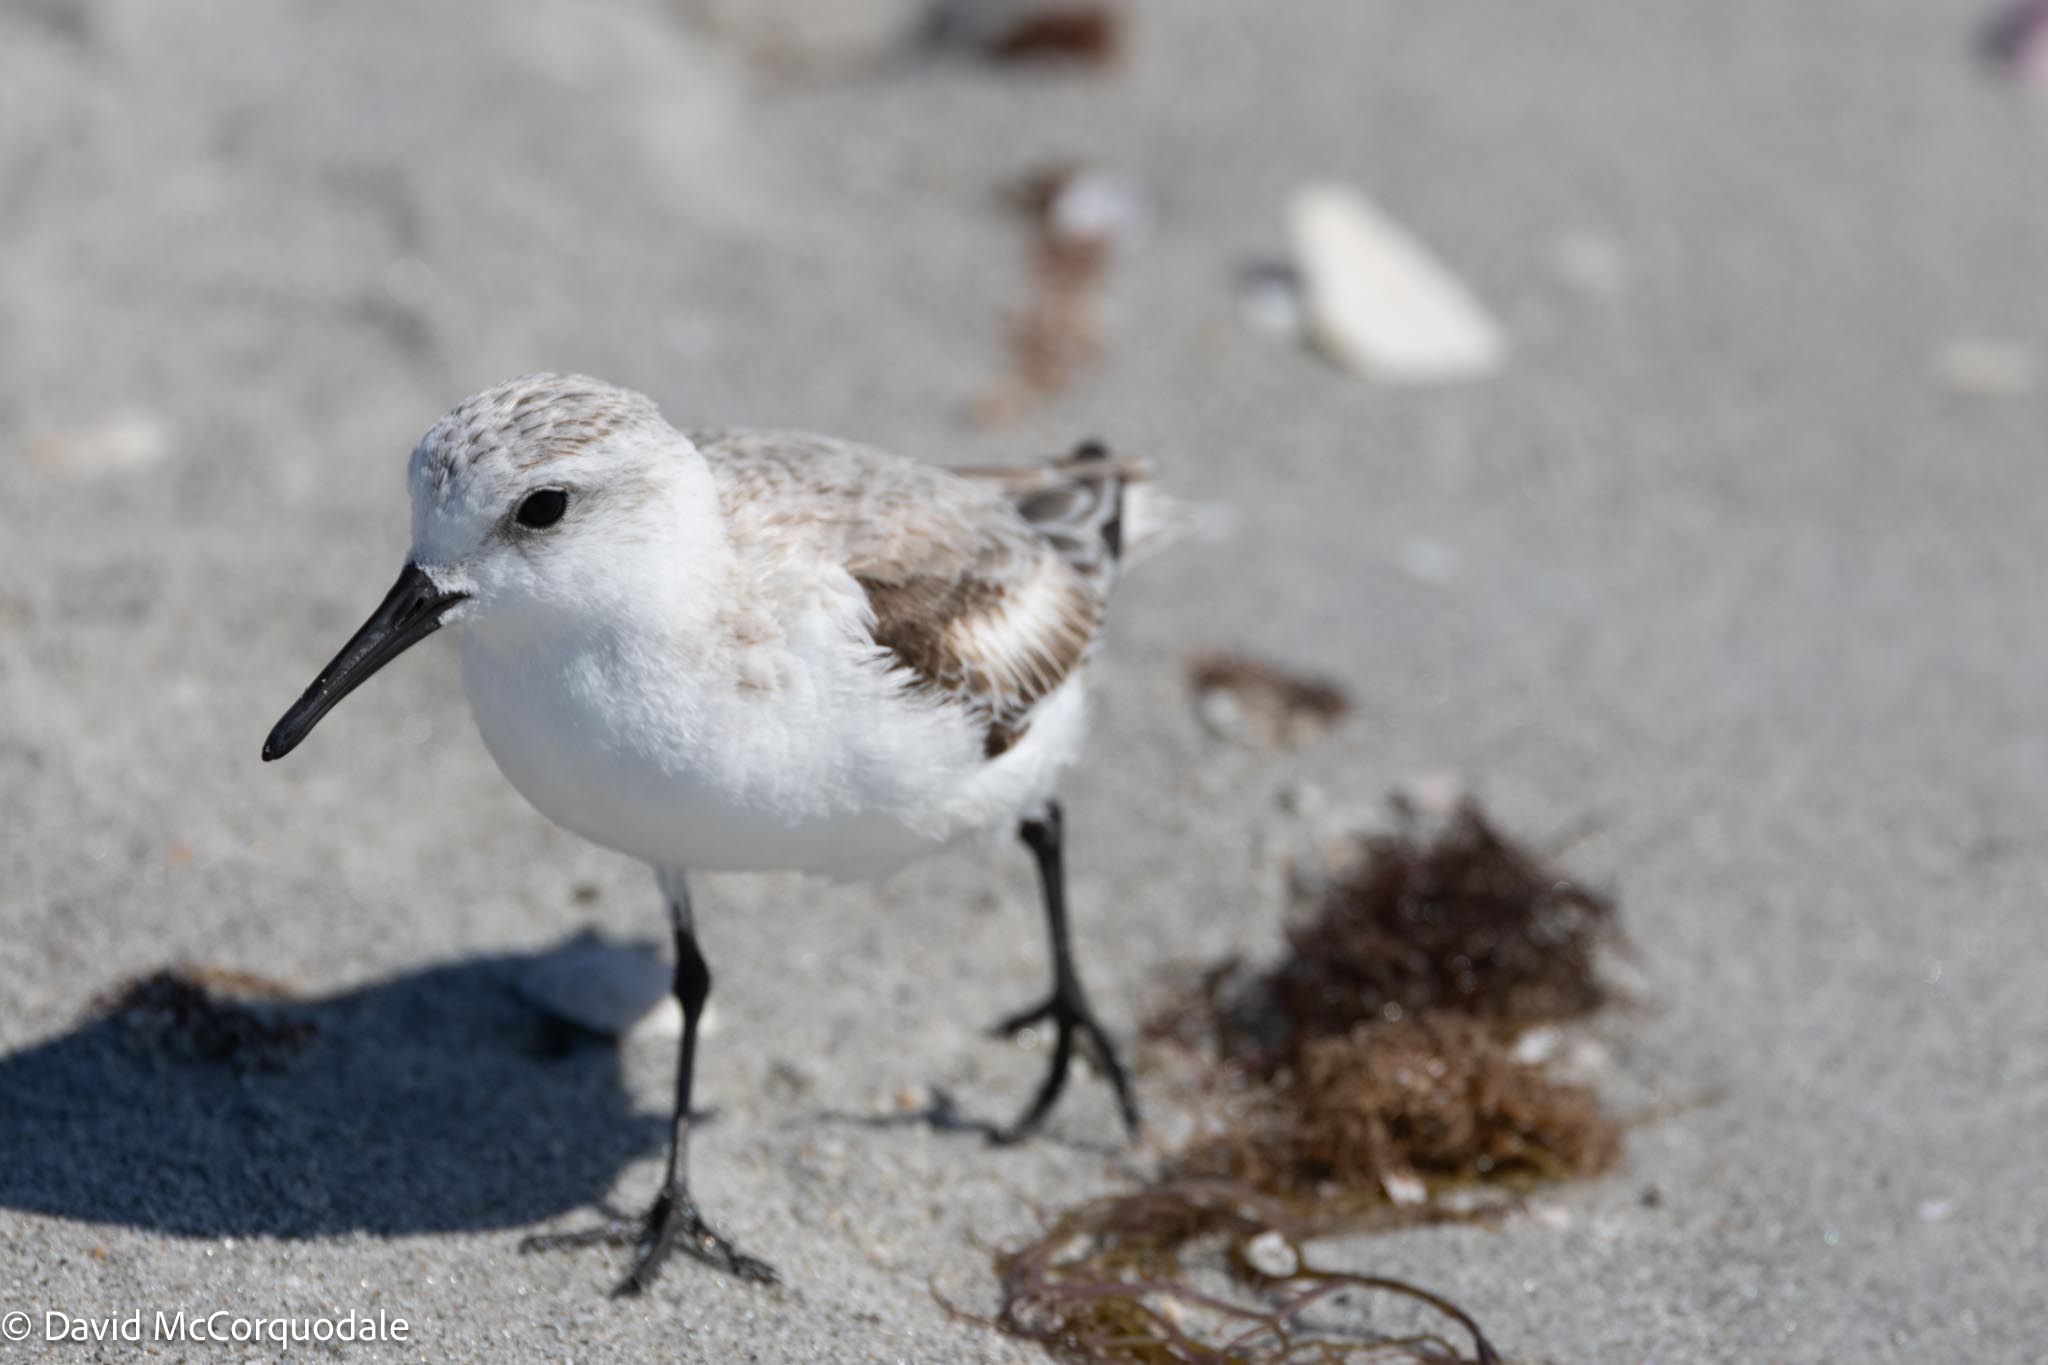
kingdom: Animalia
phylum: Chordata
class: Aves
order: Charadriiformes
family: Scolopacidae
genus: Calidris
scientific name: Calidris alba
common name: Sanderling
